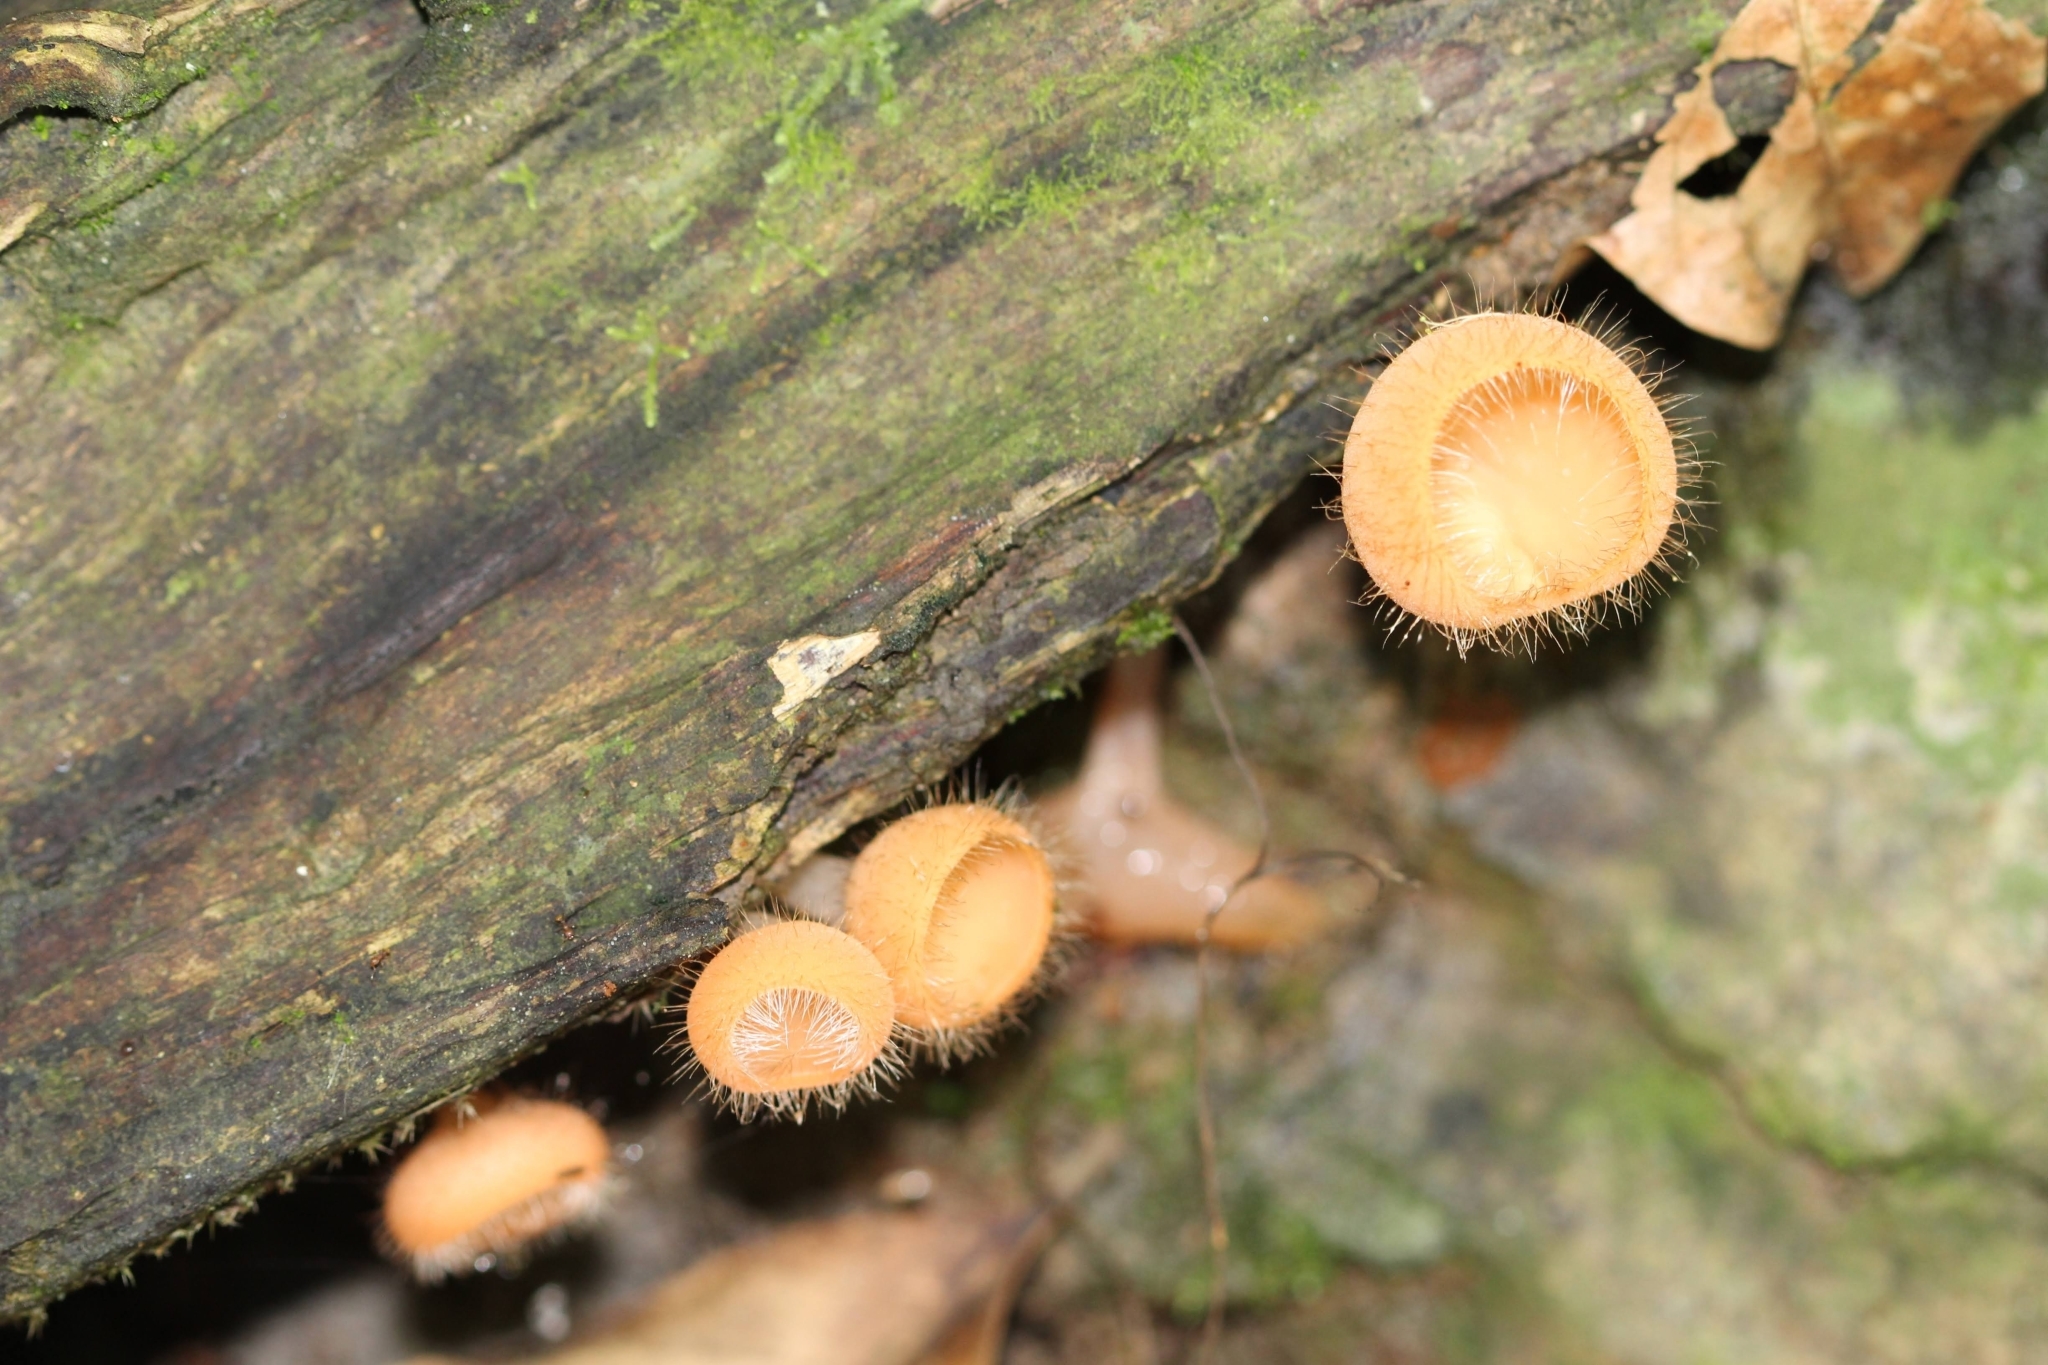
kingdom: Fungi
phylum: Ascomycota
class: Pezizomycetes
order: Pezizales
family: Sarcoscyphaceae
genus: Cookeina
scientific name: Cookeina tricholoma
